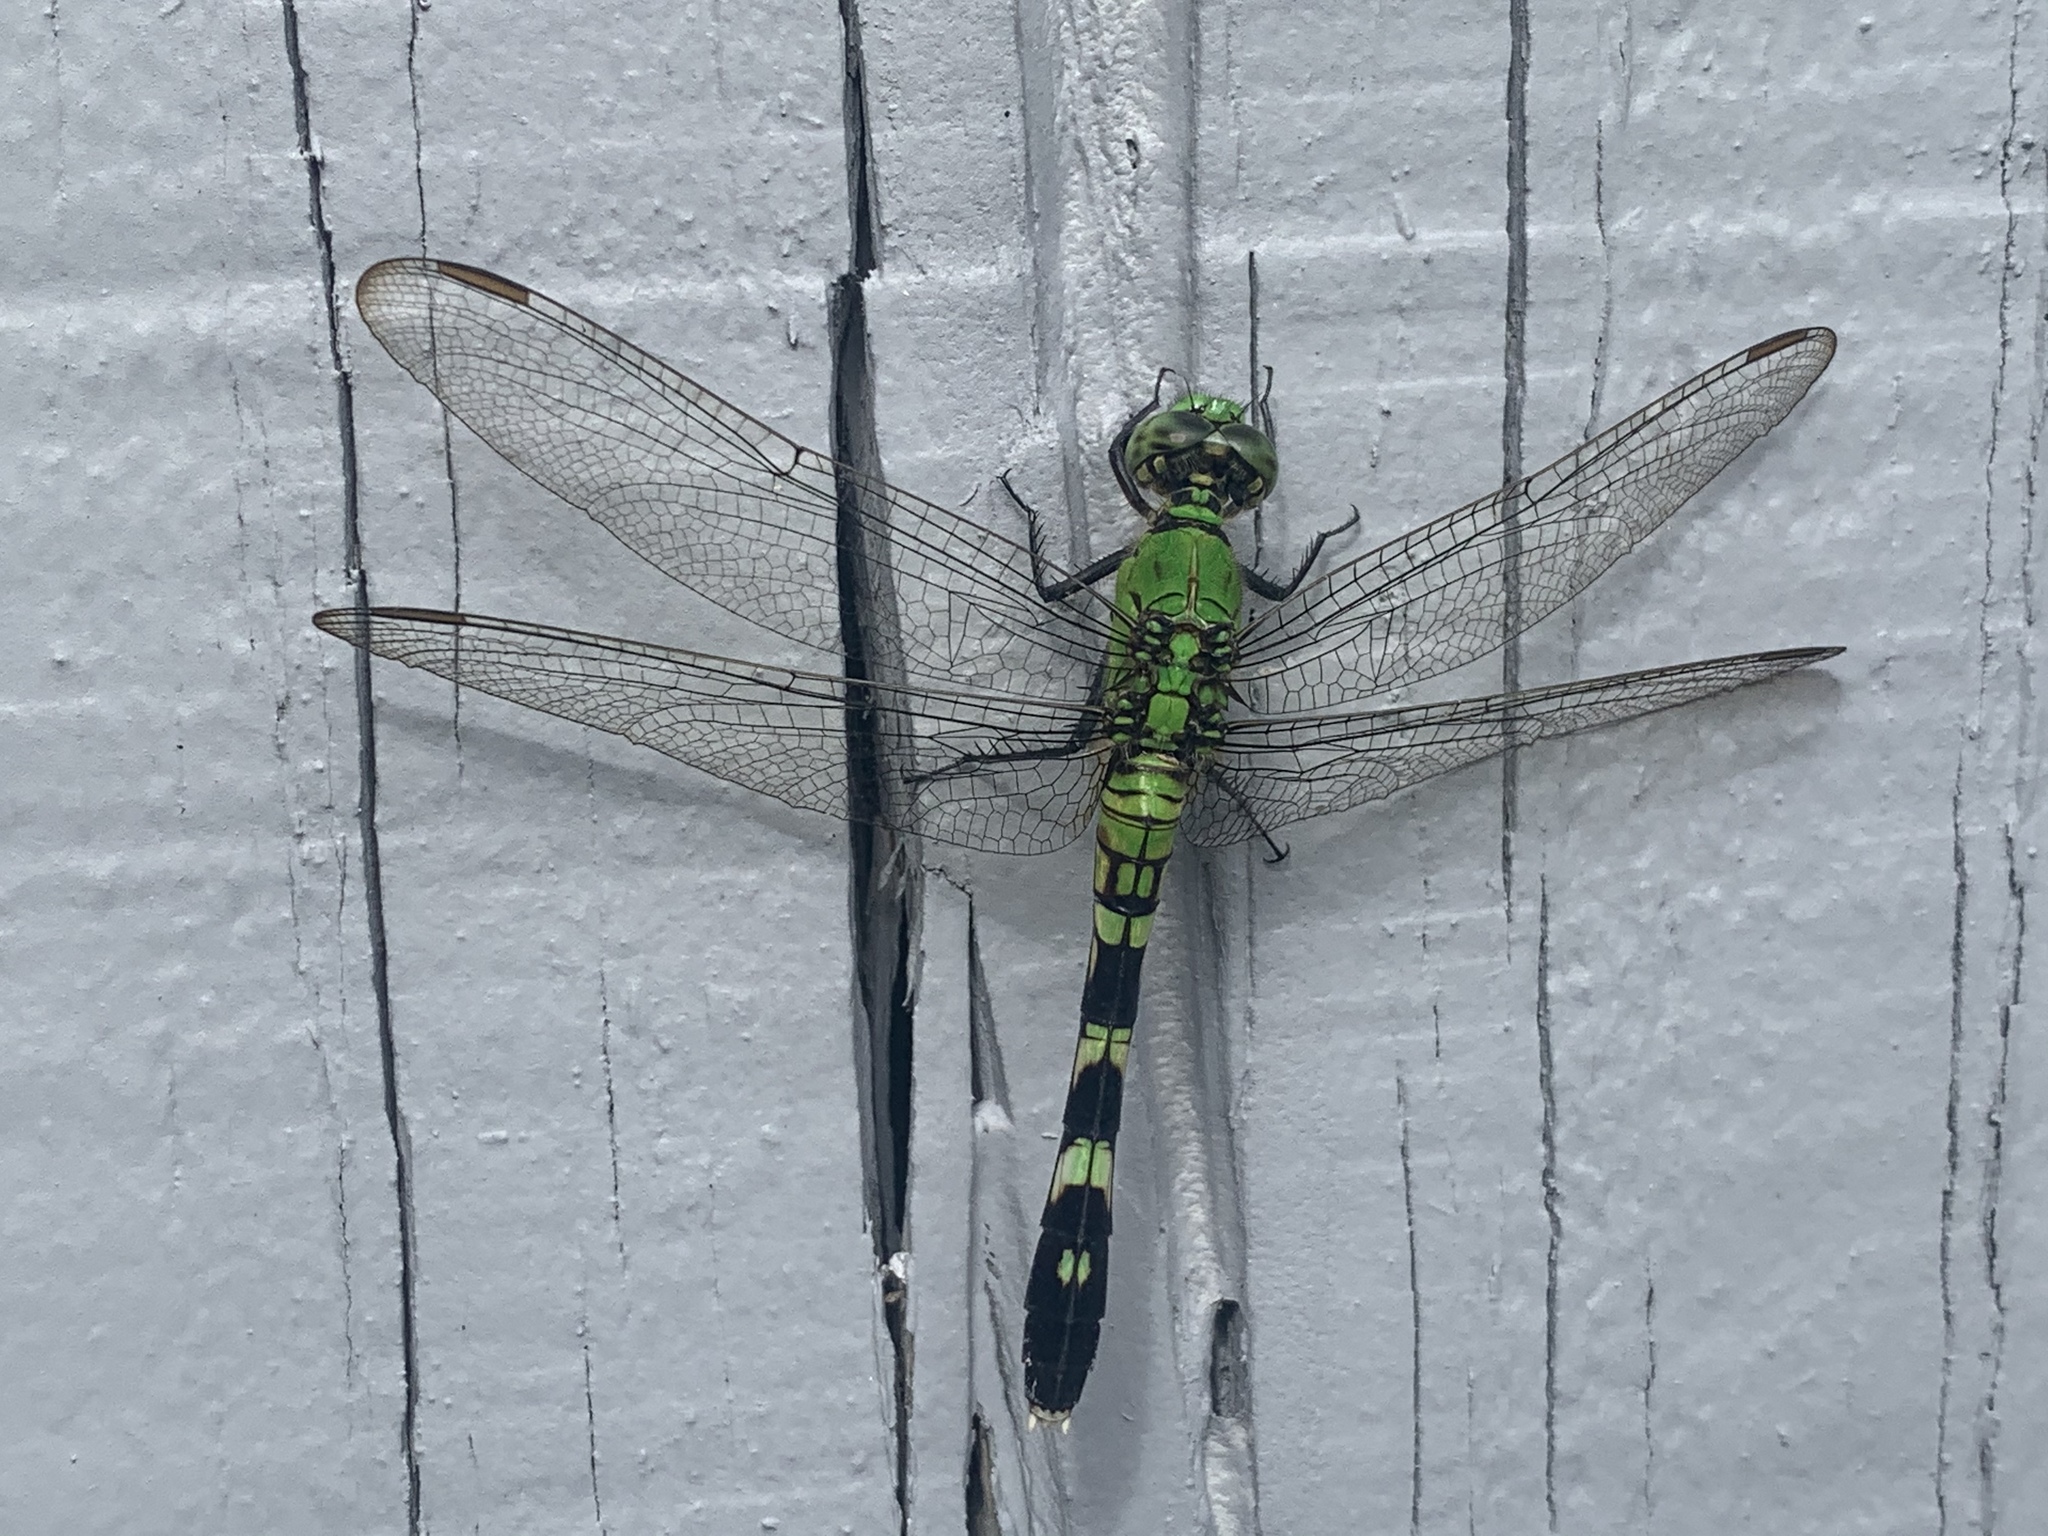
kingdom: Animalia
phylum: Arthropoda
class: Insecta
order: Odonata
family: Libellulidae
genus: Erythemis
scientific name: Erythemis simplicicollis
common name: Eastern pondhawk
